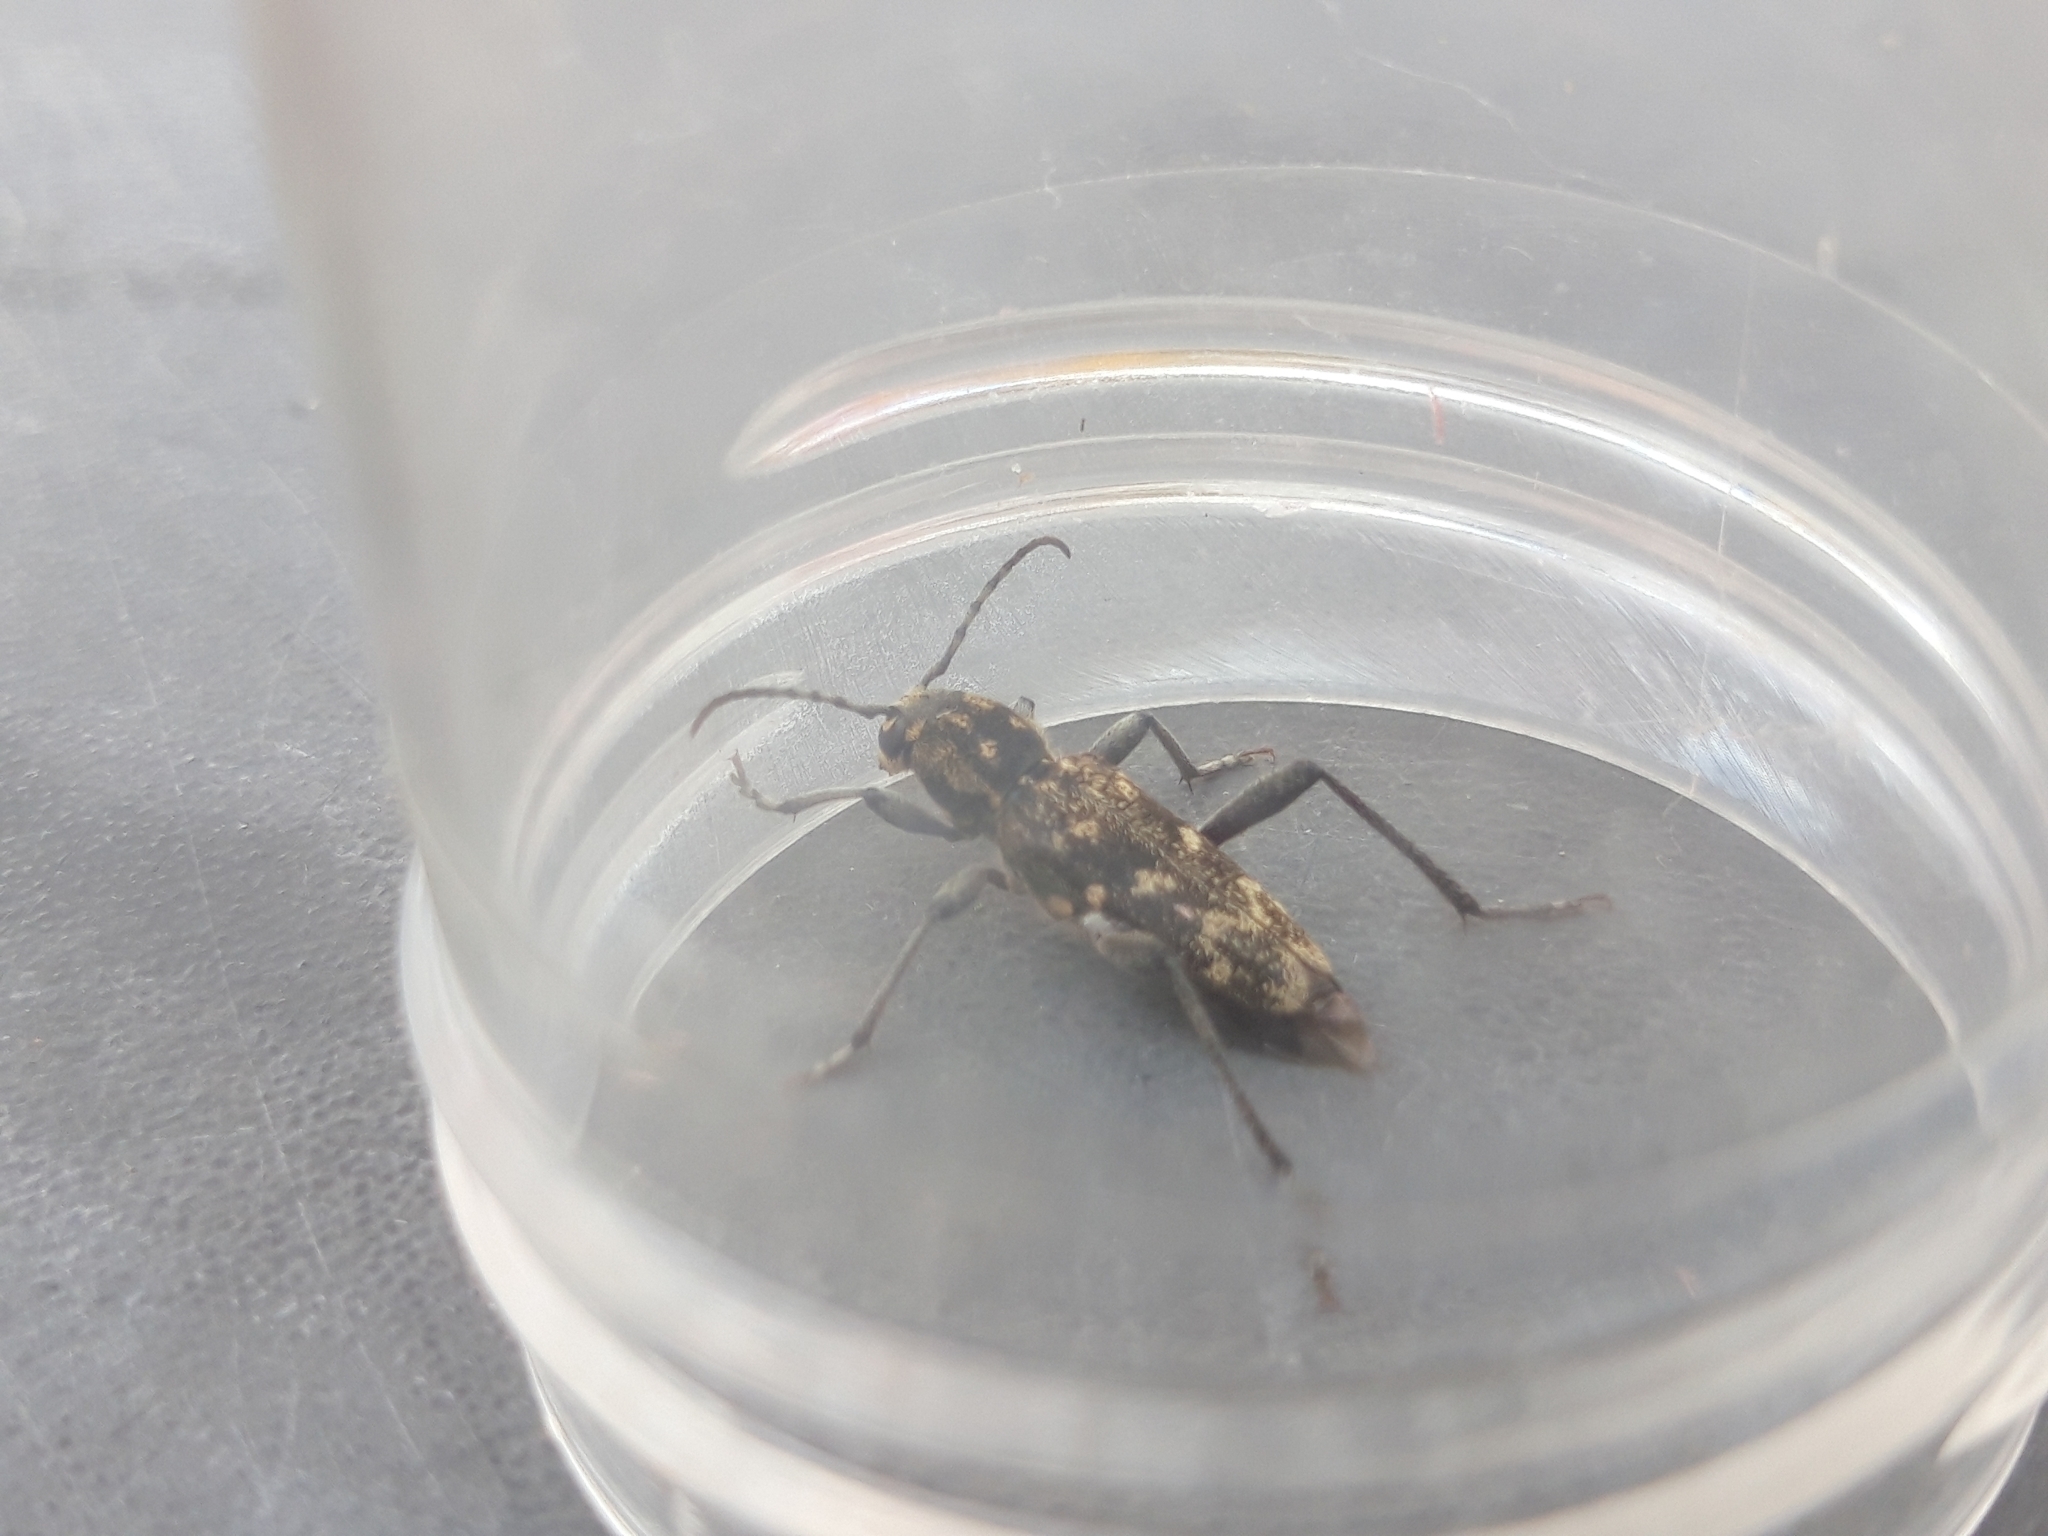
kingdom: Animalia
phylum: Arthropoda
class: Insecta
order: Coleoptera
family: Cerambycidae
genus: Xylotrechus
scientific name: Xylotrechus rusticus
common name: Grey tiger long-horned beetle
